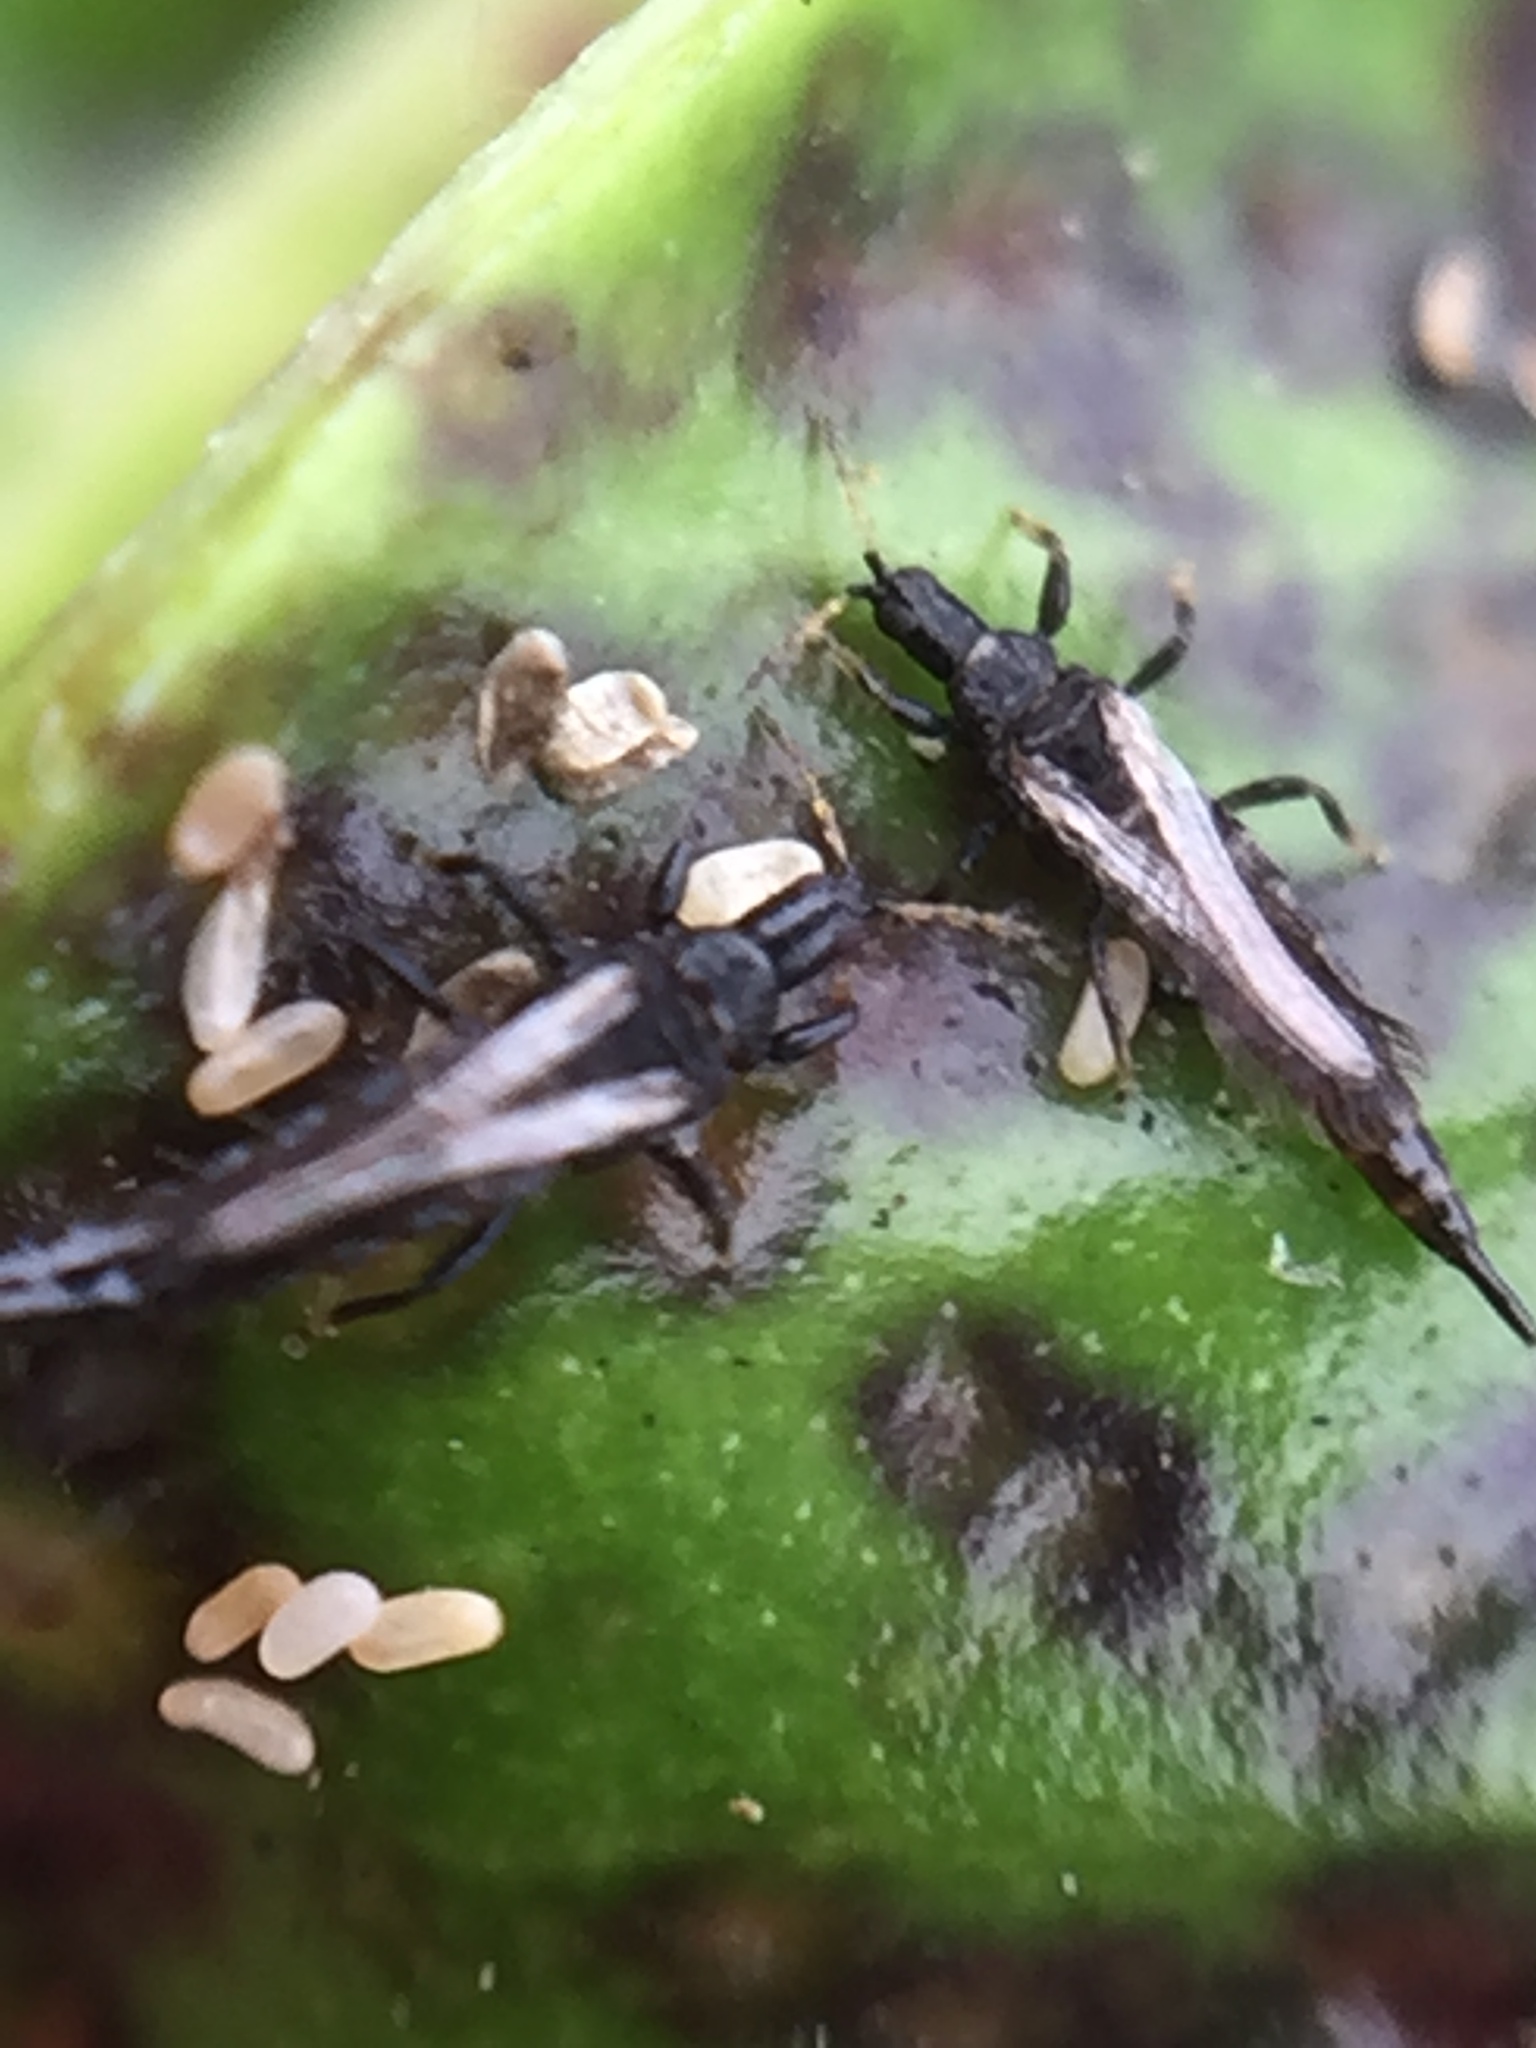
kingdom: Animalia
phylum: Arthropoda
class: Insecta
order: Thysanoptera
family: Phlaeothripidae
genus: Gynaikothrips
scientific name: Gynaikothrips ficorum
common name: Cuban laurel thrips
